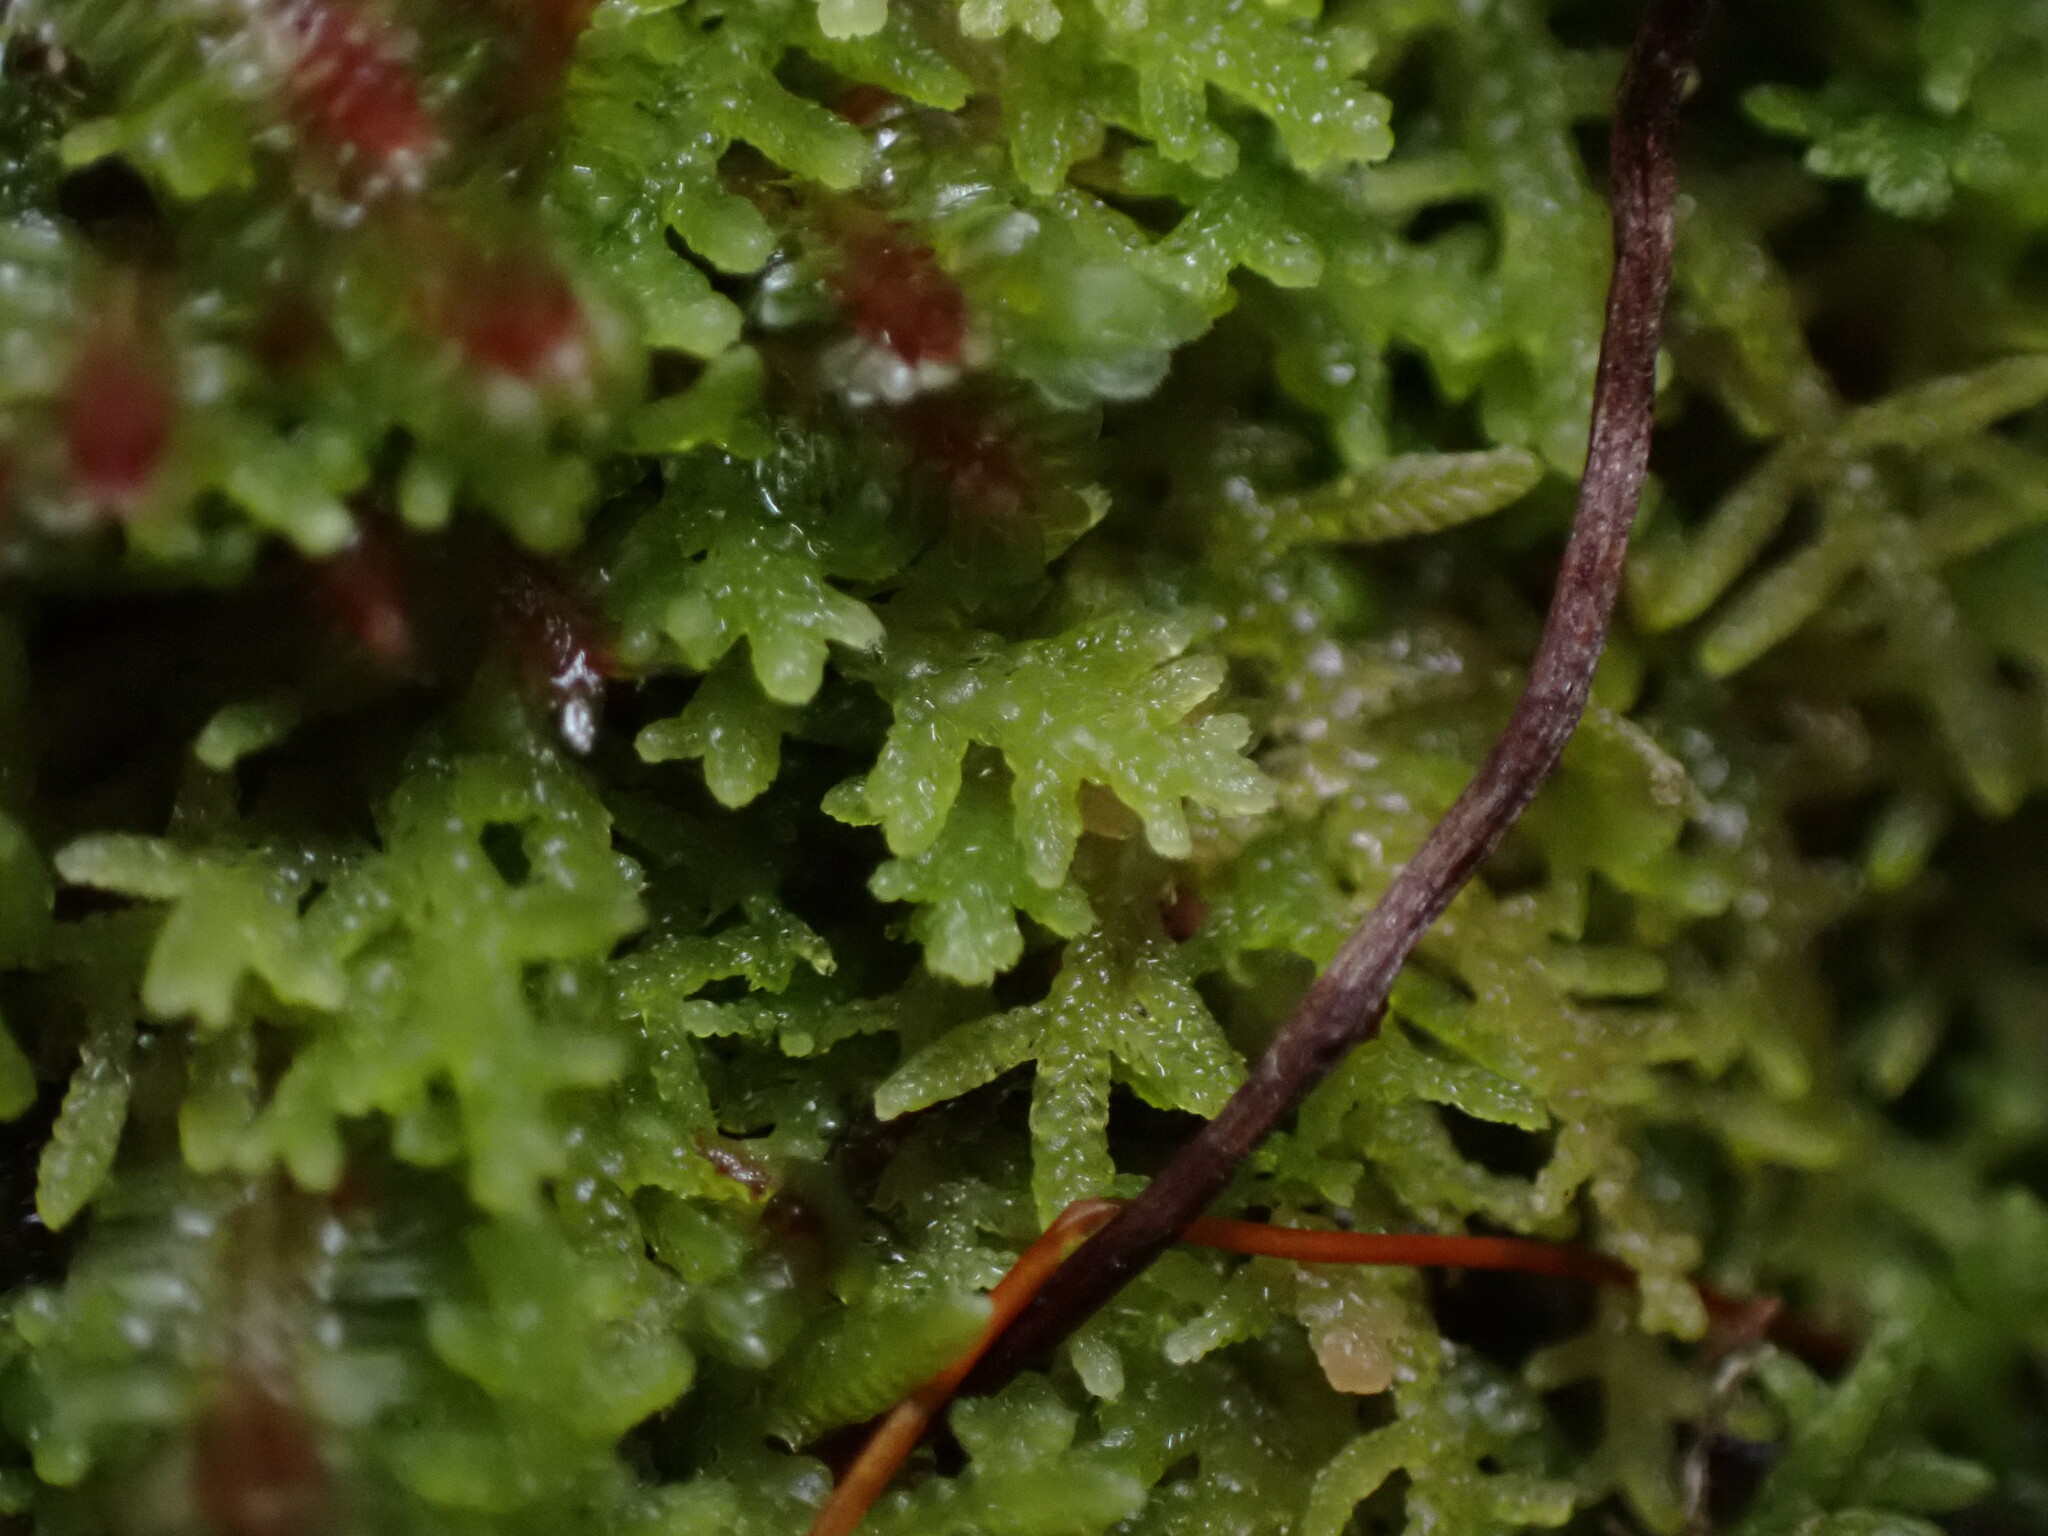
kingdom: Plantae
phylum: Marchantiophyta
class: Jungermanniopsida
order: Jungermanniales
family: Lepidoziaceae
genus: Lepidozia
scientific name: Lepidozia reptans
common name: Creeping fingerwort
